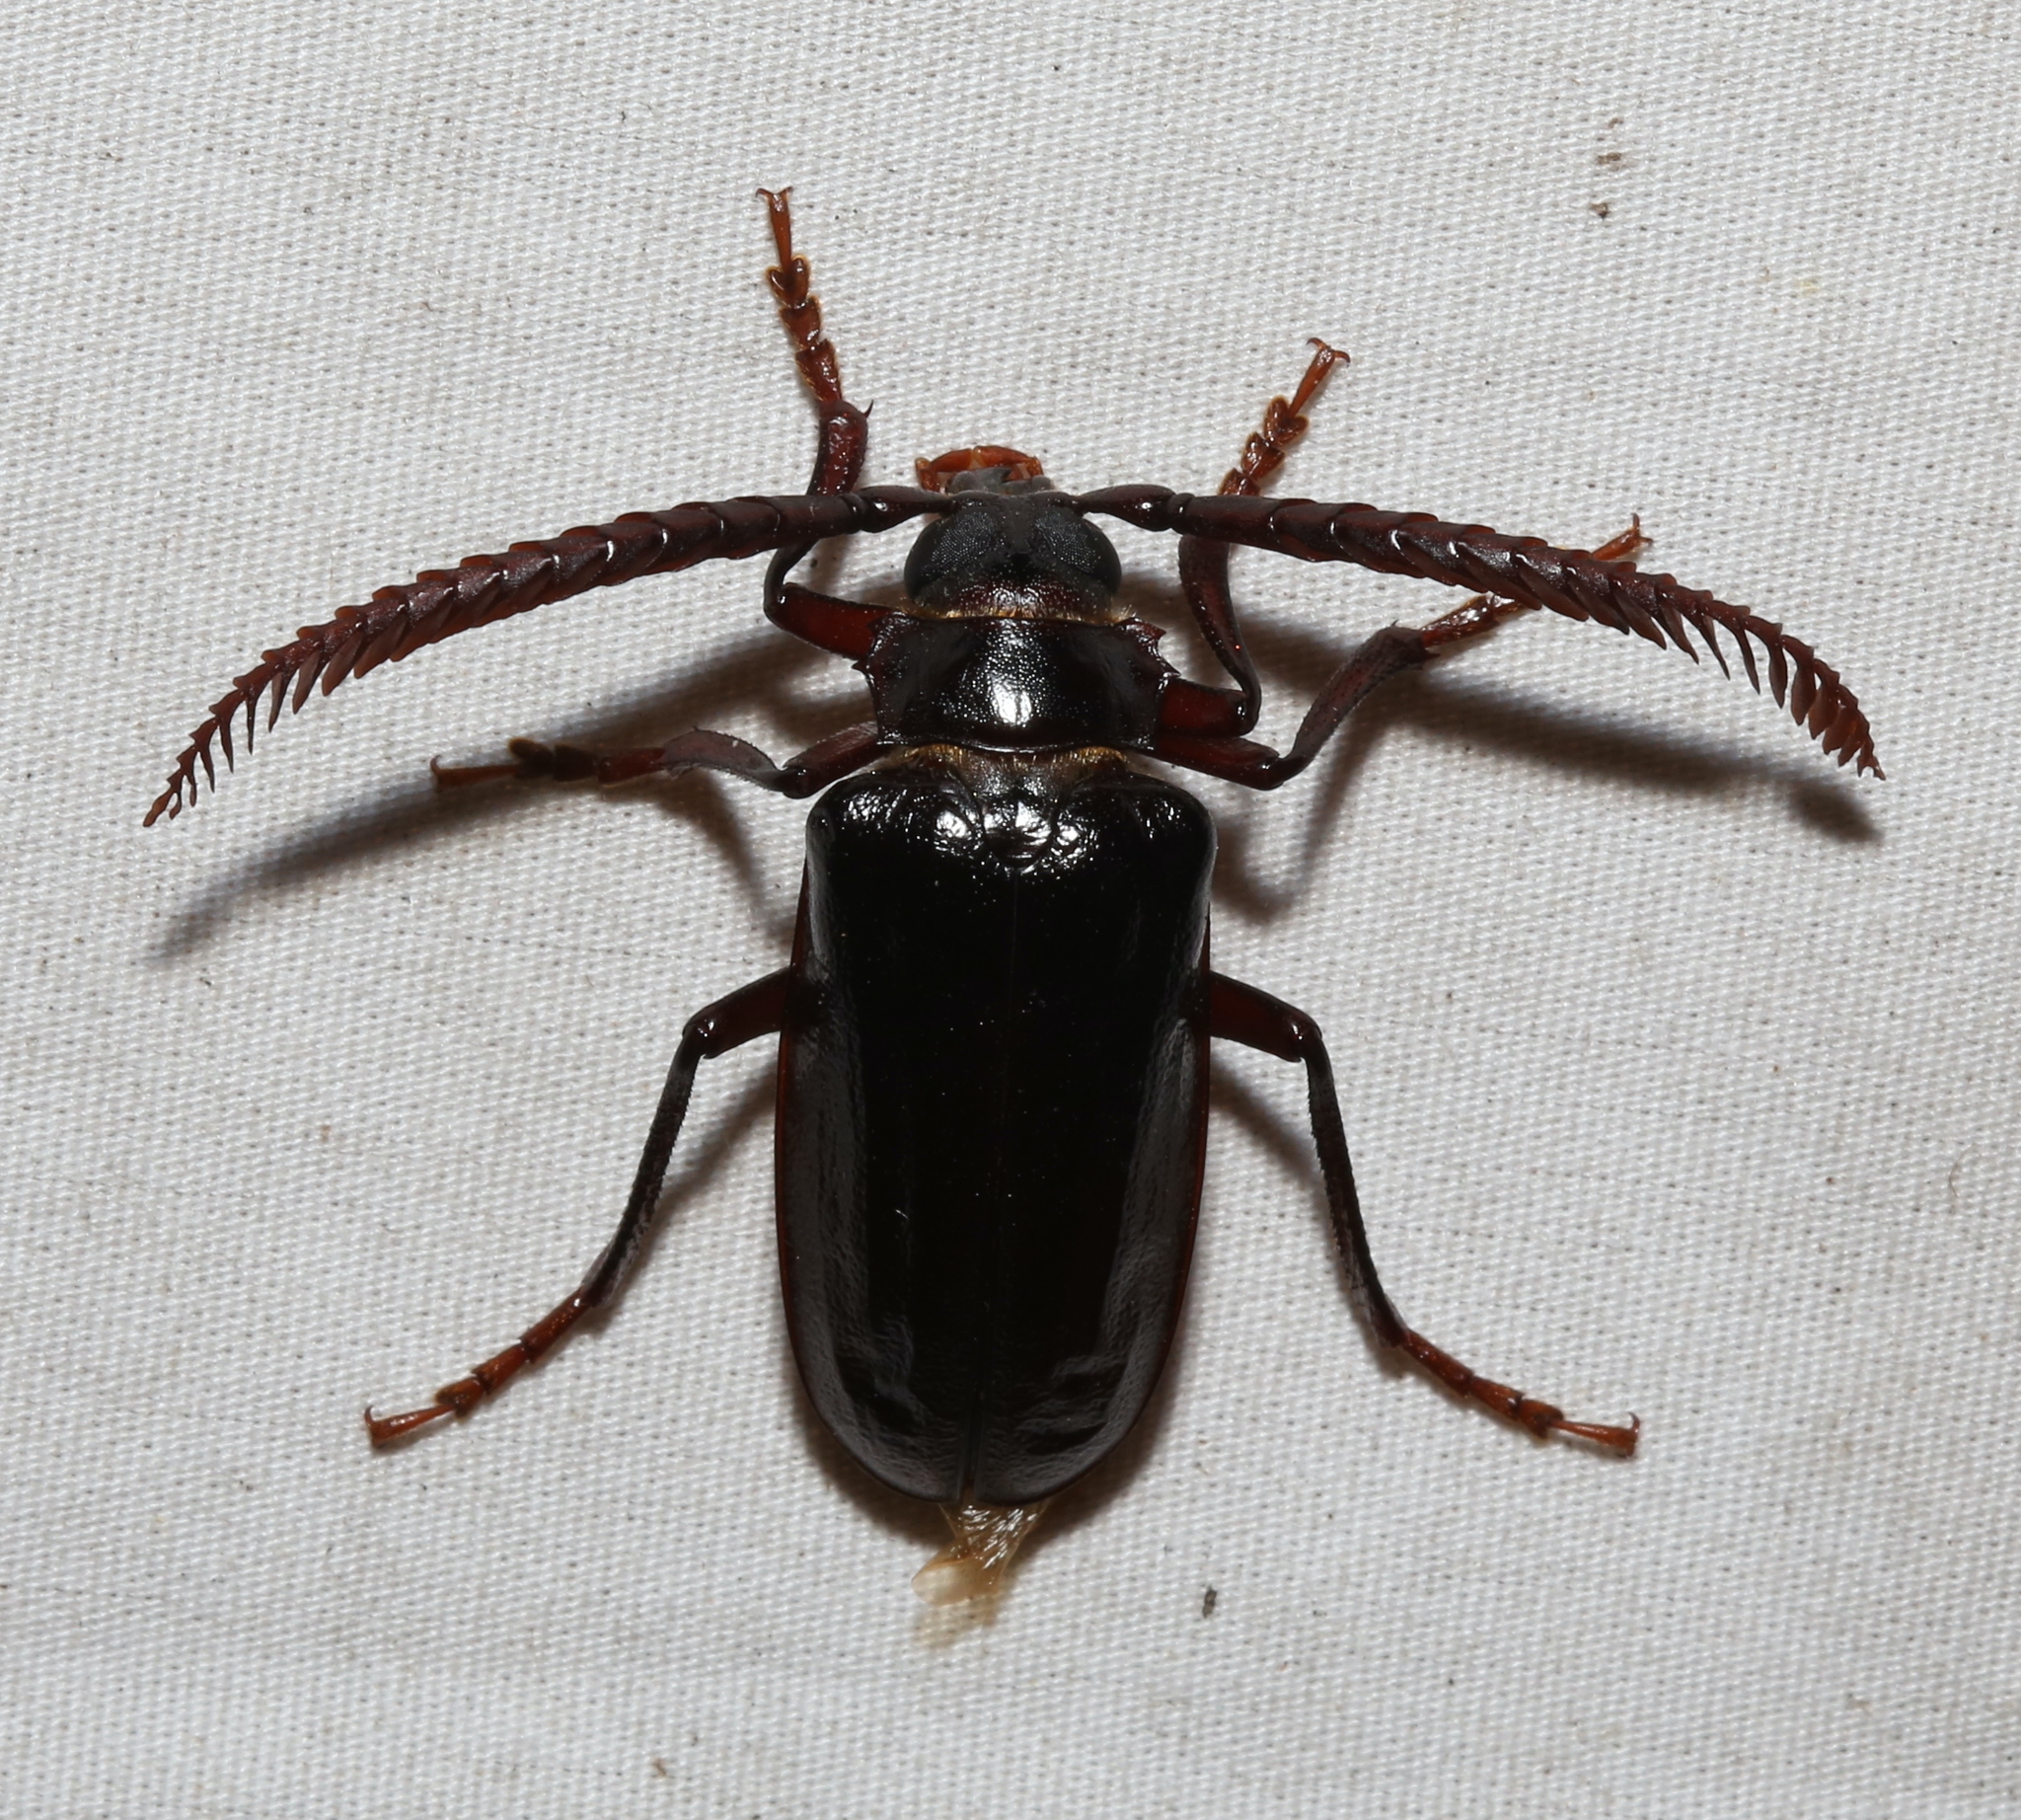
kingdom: Animalia
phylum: Arthropoda
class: Insecta
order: Coleoptera
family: Cerambycidae
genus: Prionus
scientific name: Prionus imbricornis
